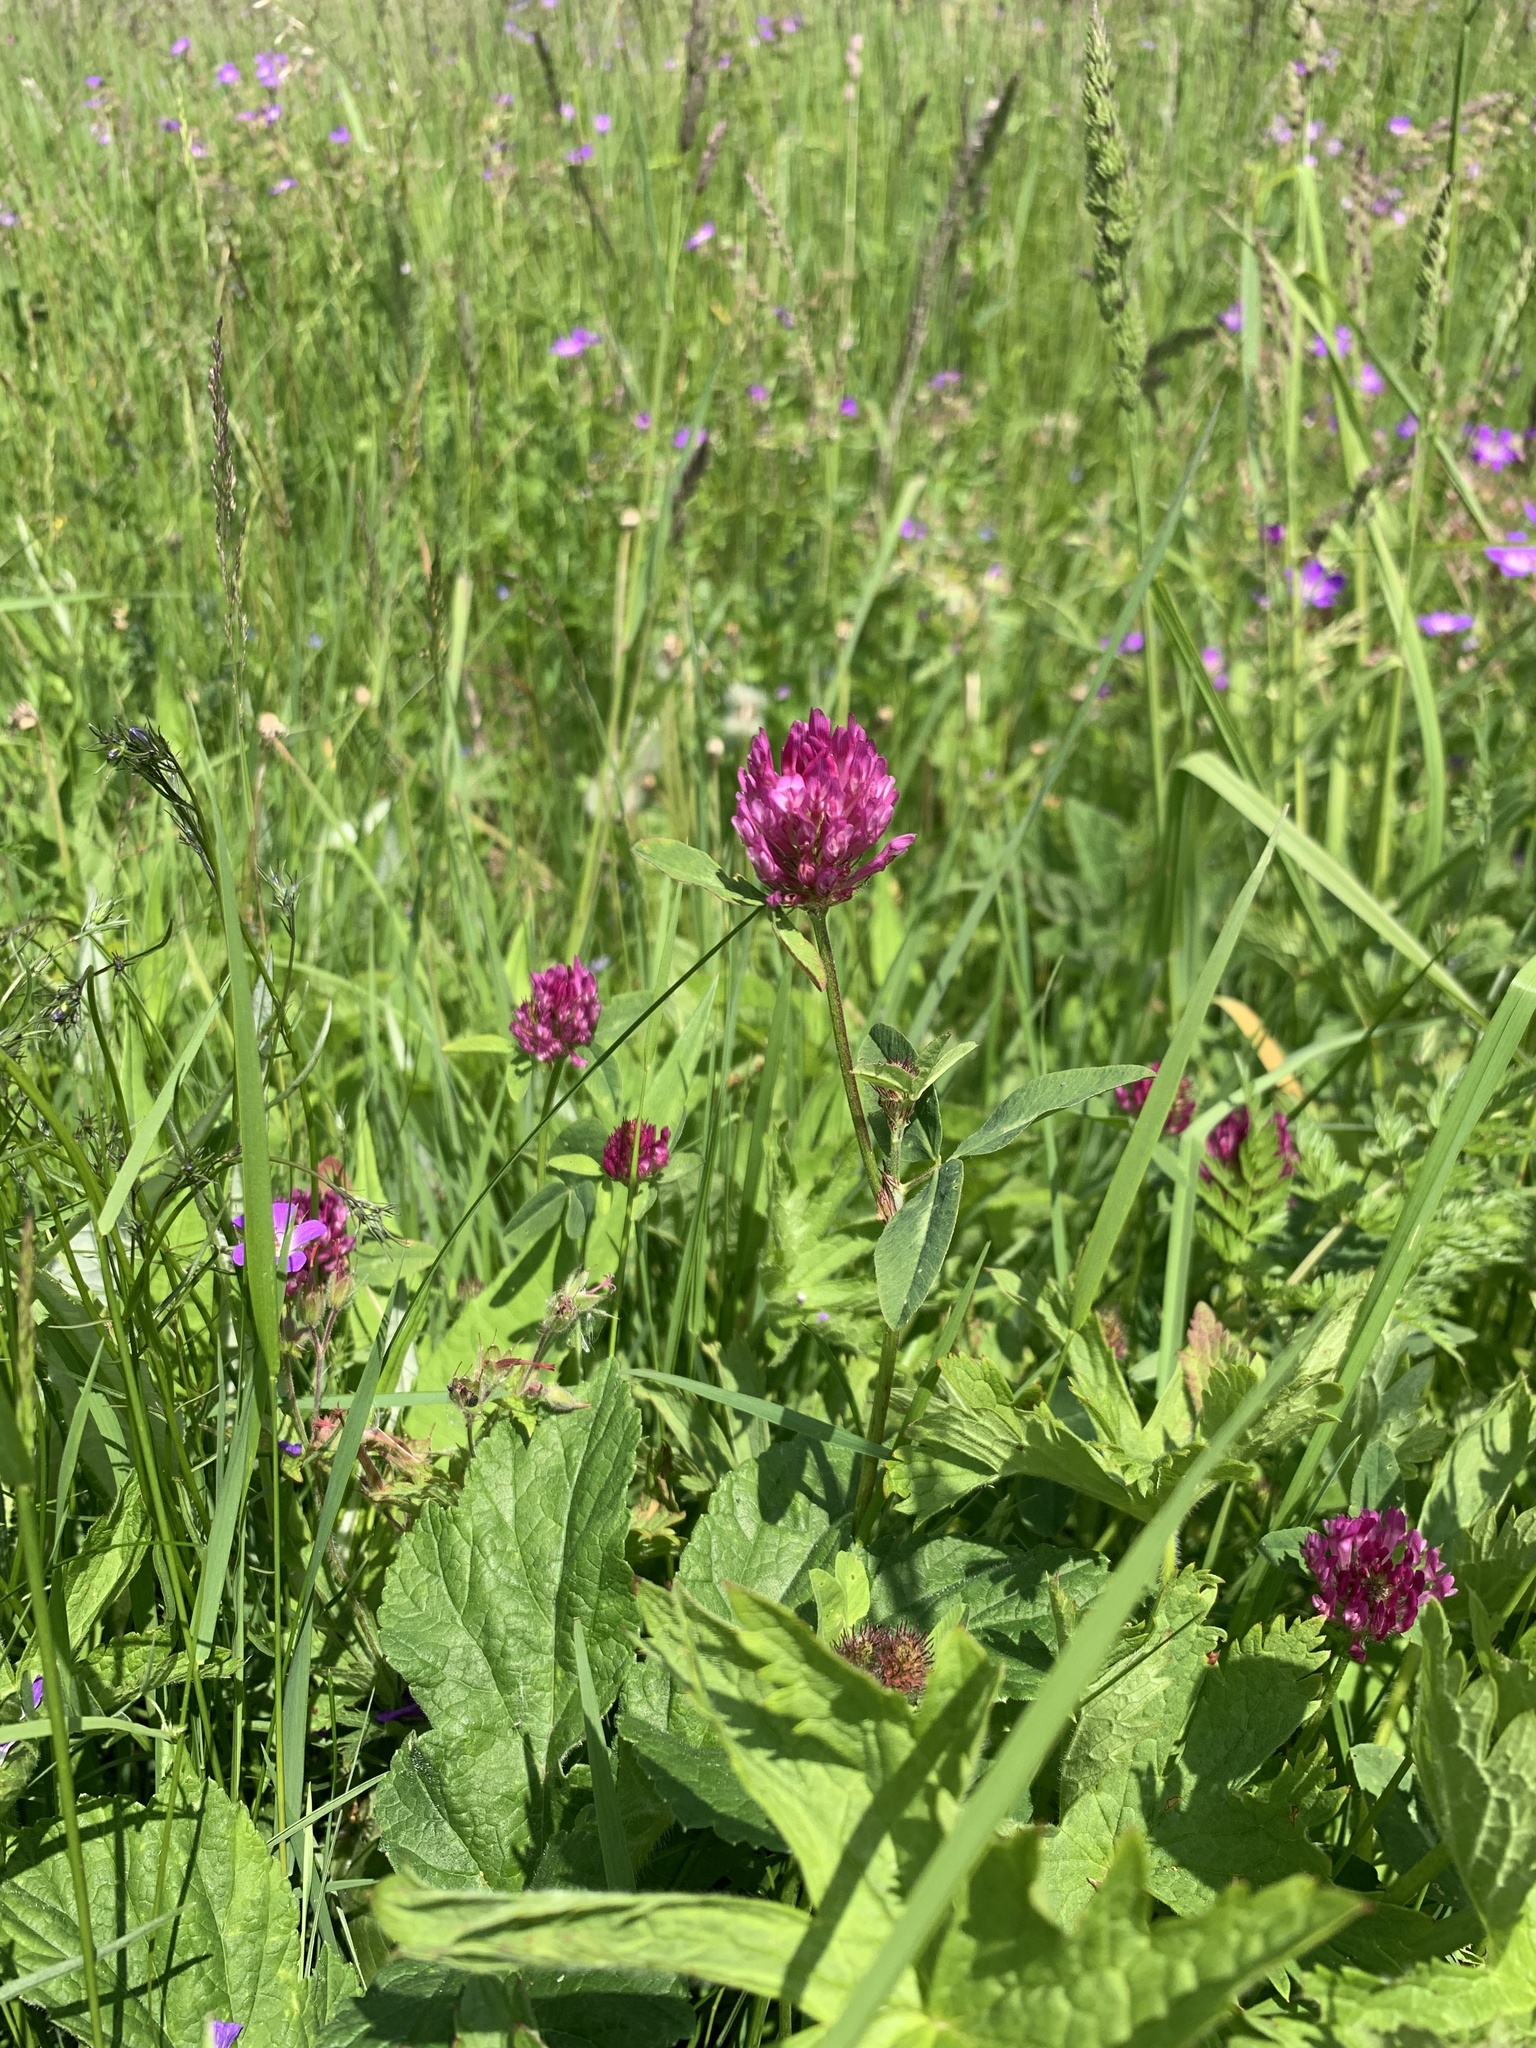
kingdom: Plantae
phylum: Tracheophyta
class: Magnoliopsida
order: Fabales
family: Fabaceae
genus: Trifolium
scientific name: Trifolium pratense
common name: Red clover
